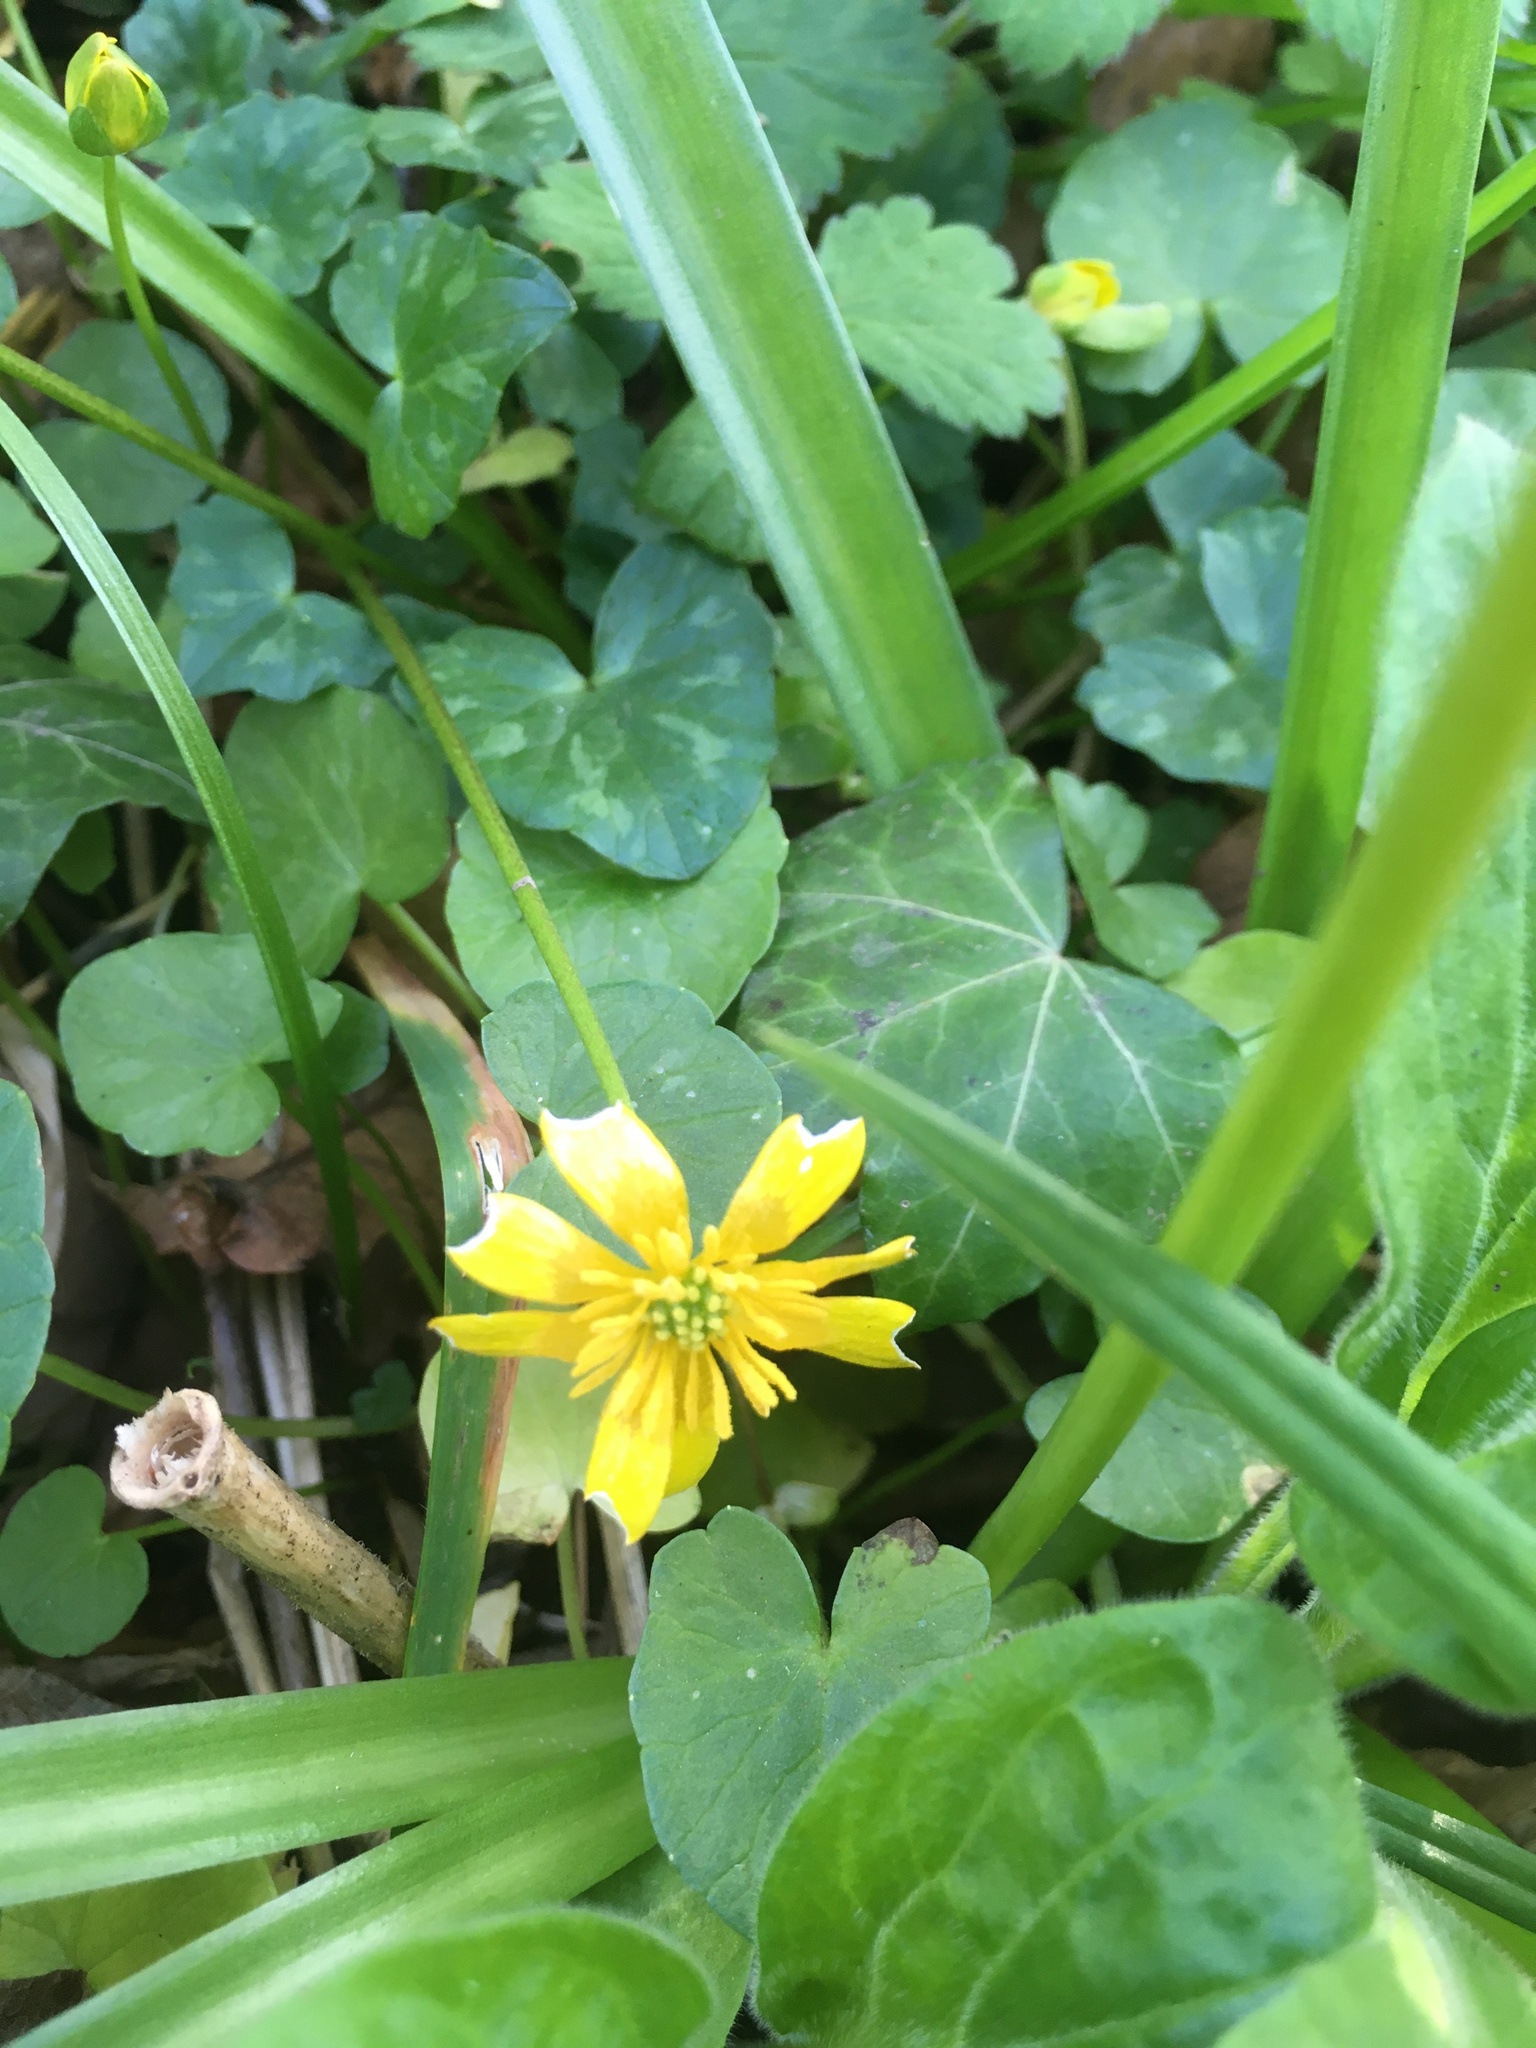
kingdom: Plantae
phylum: Tracheophyta
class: Magnoliopsida
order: Ranunculales
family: Ranunculaceae
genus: Ficaria
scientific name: Ficaria verna
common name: Lesser celandine
